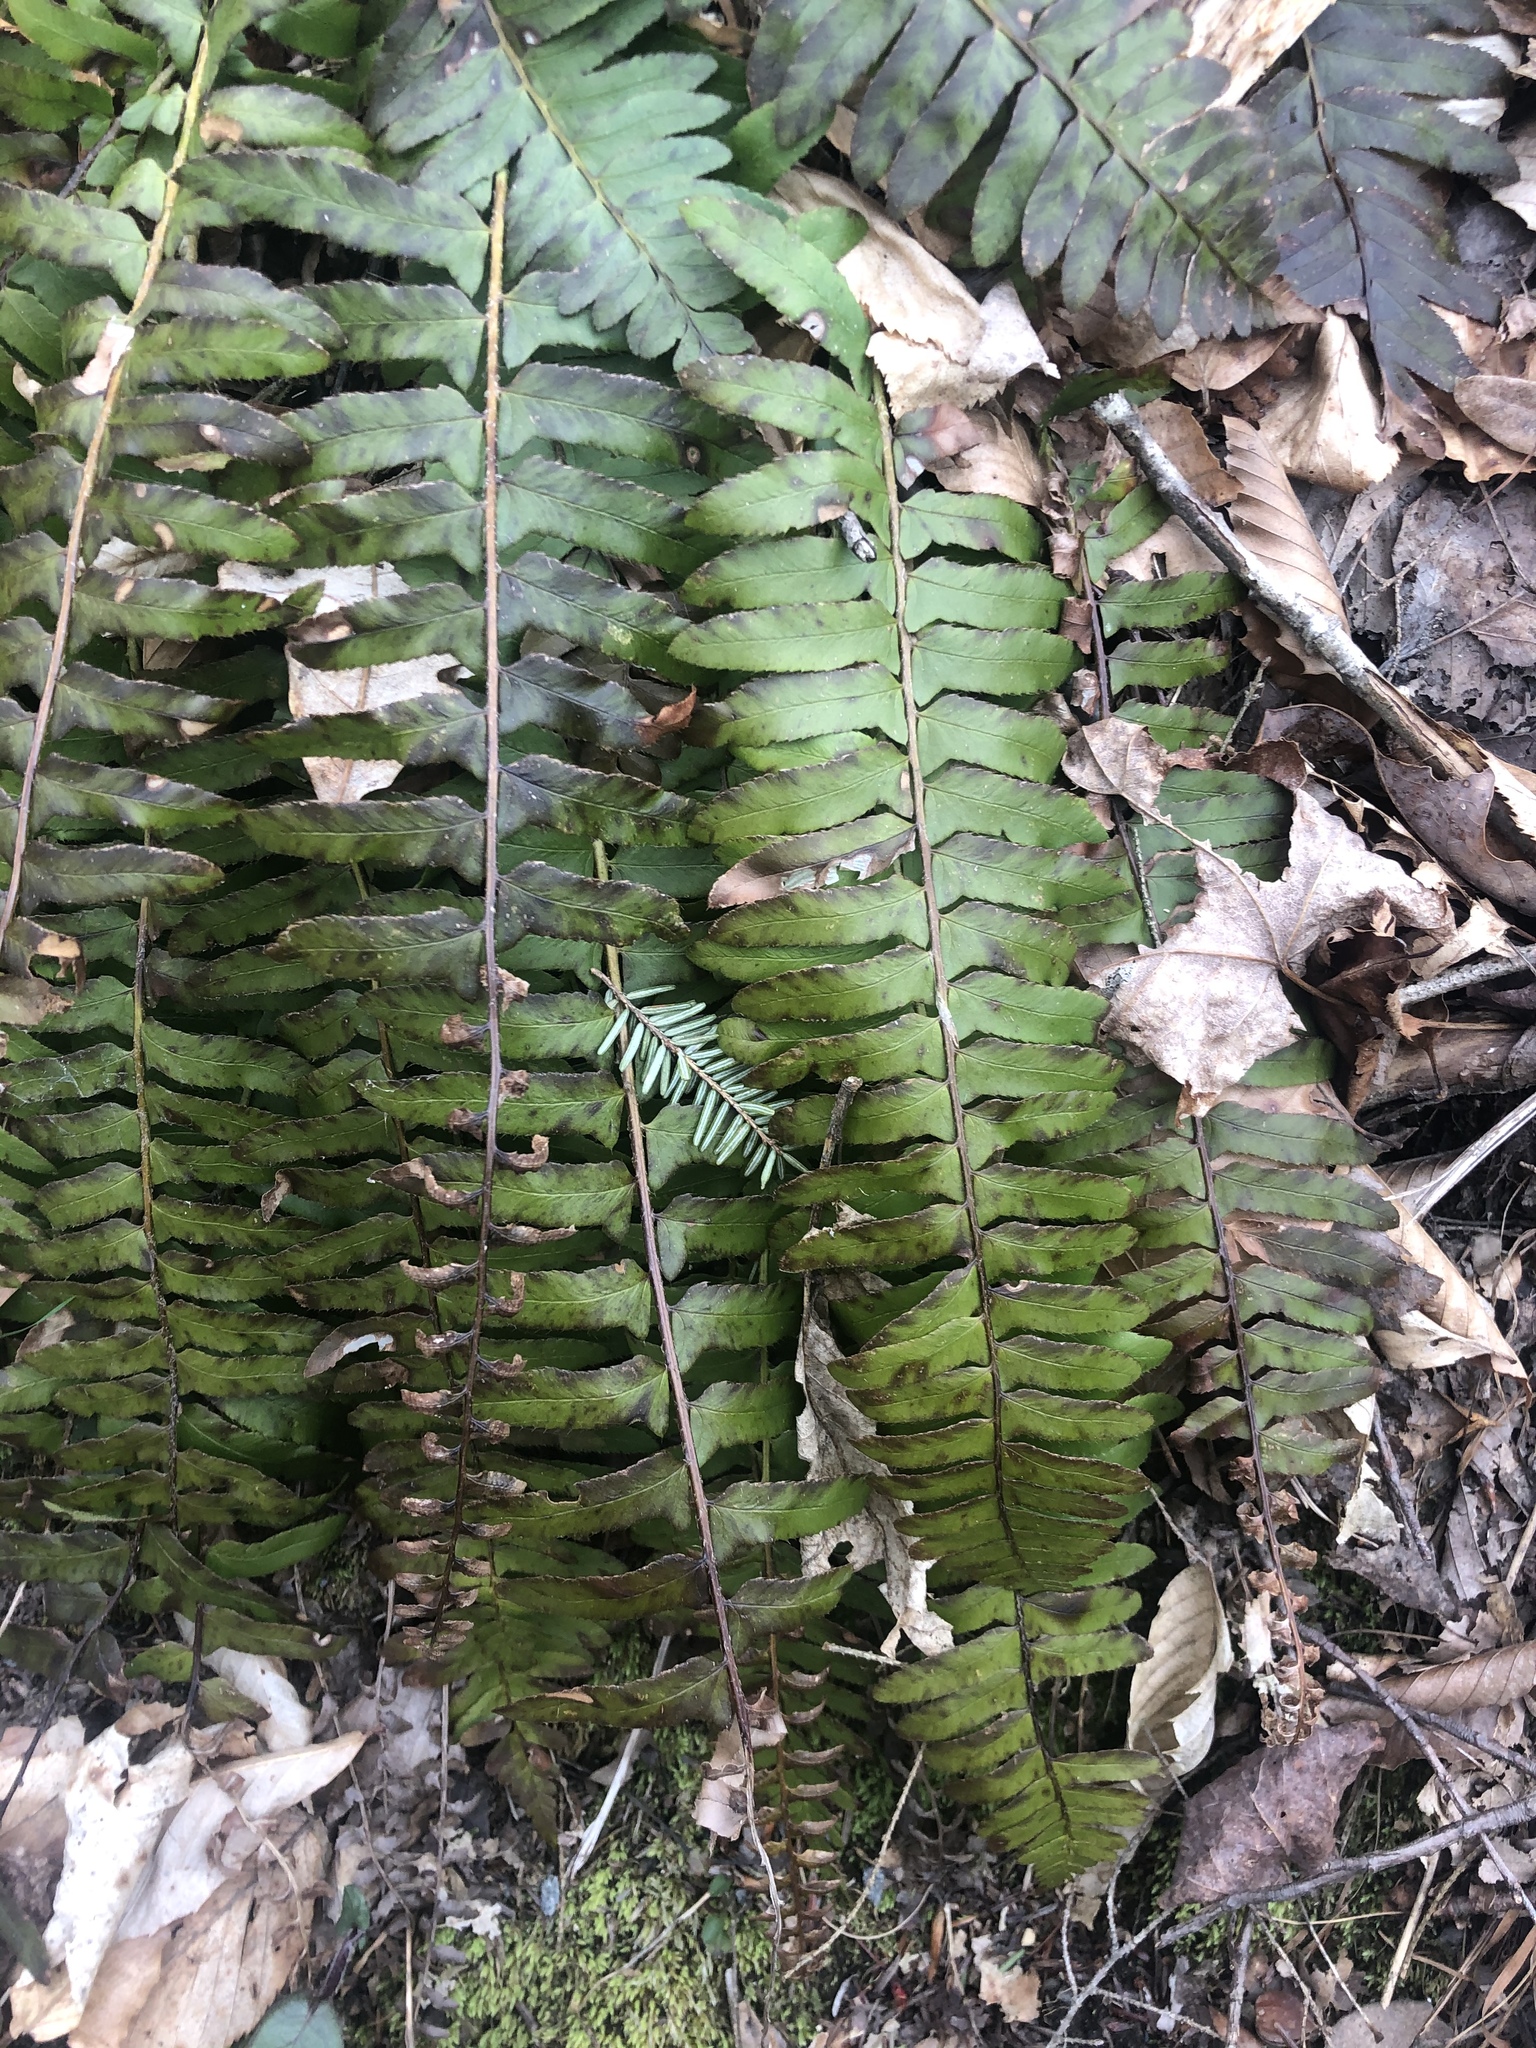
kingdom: Plantae
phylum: Tracheophyta
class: Polypodiopsida
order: Polypodiales
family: Dryopteridaceae
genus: Polystichum
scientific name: Polystichum acrostichoides
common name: Christmas fern
